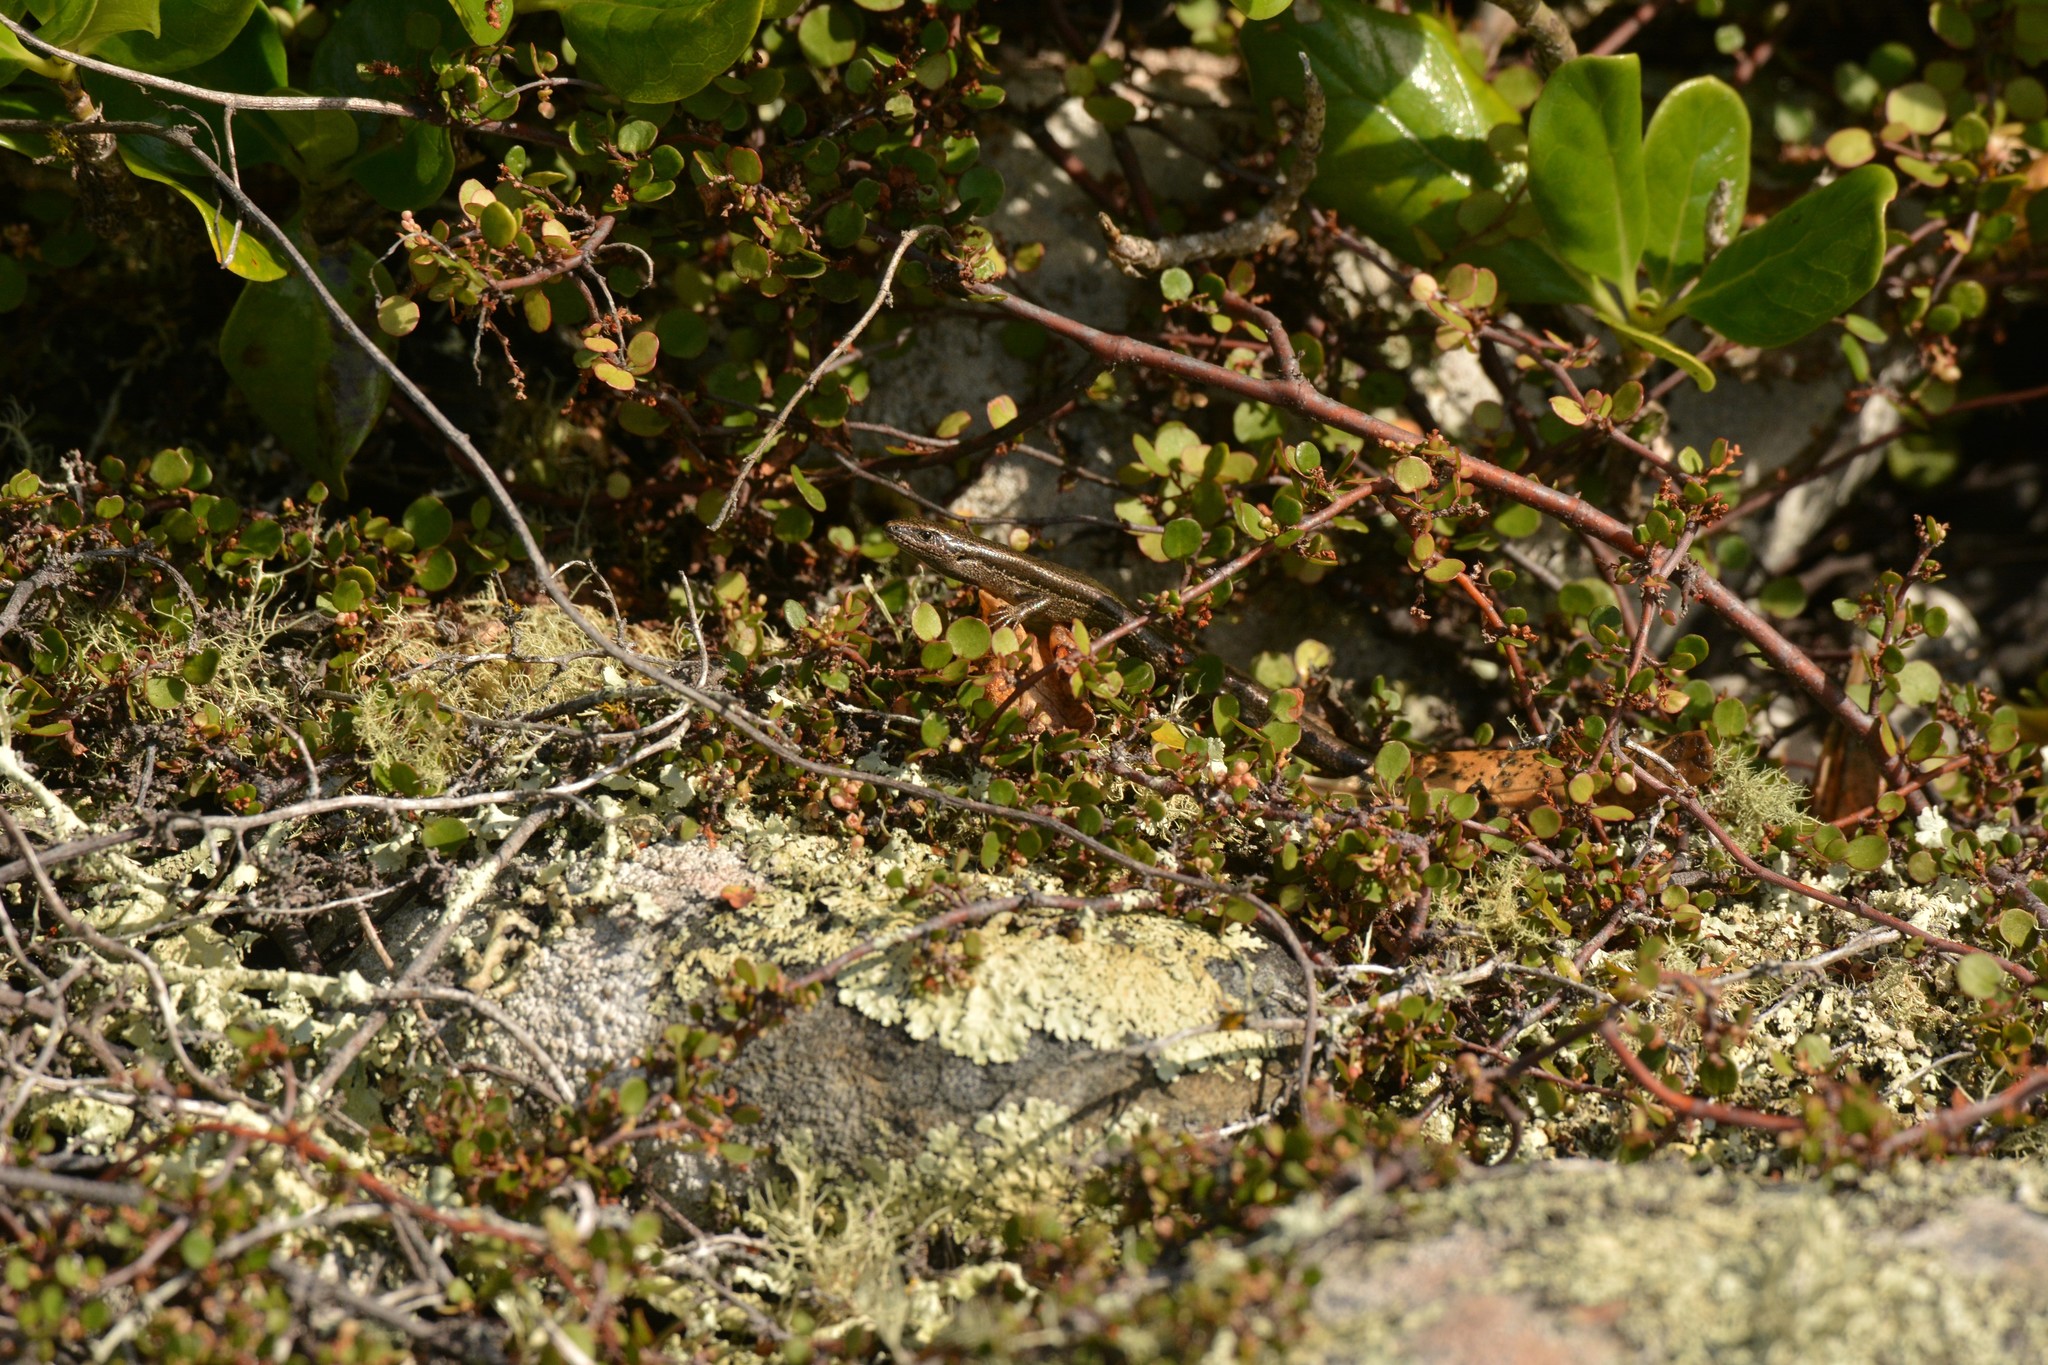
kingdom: Animalia
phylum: Chordata
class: Squamata
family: Scincidae
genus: Oligosoma
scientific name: Oligosoma polychroma
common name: Common new zealand skink
